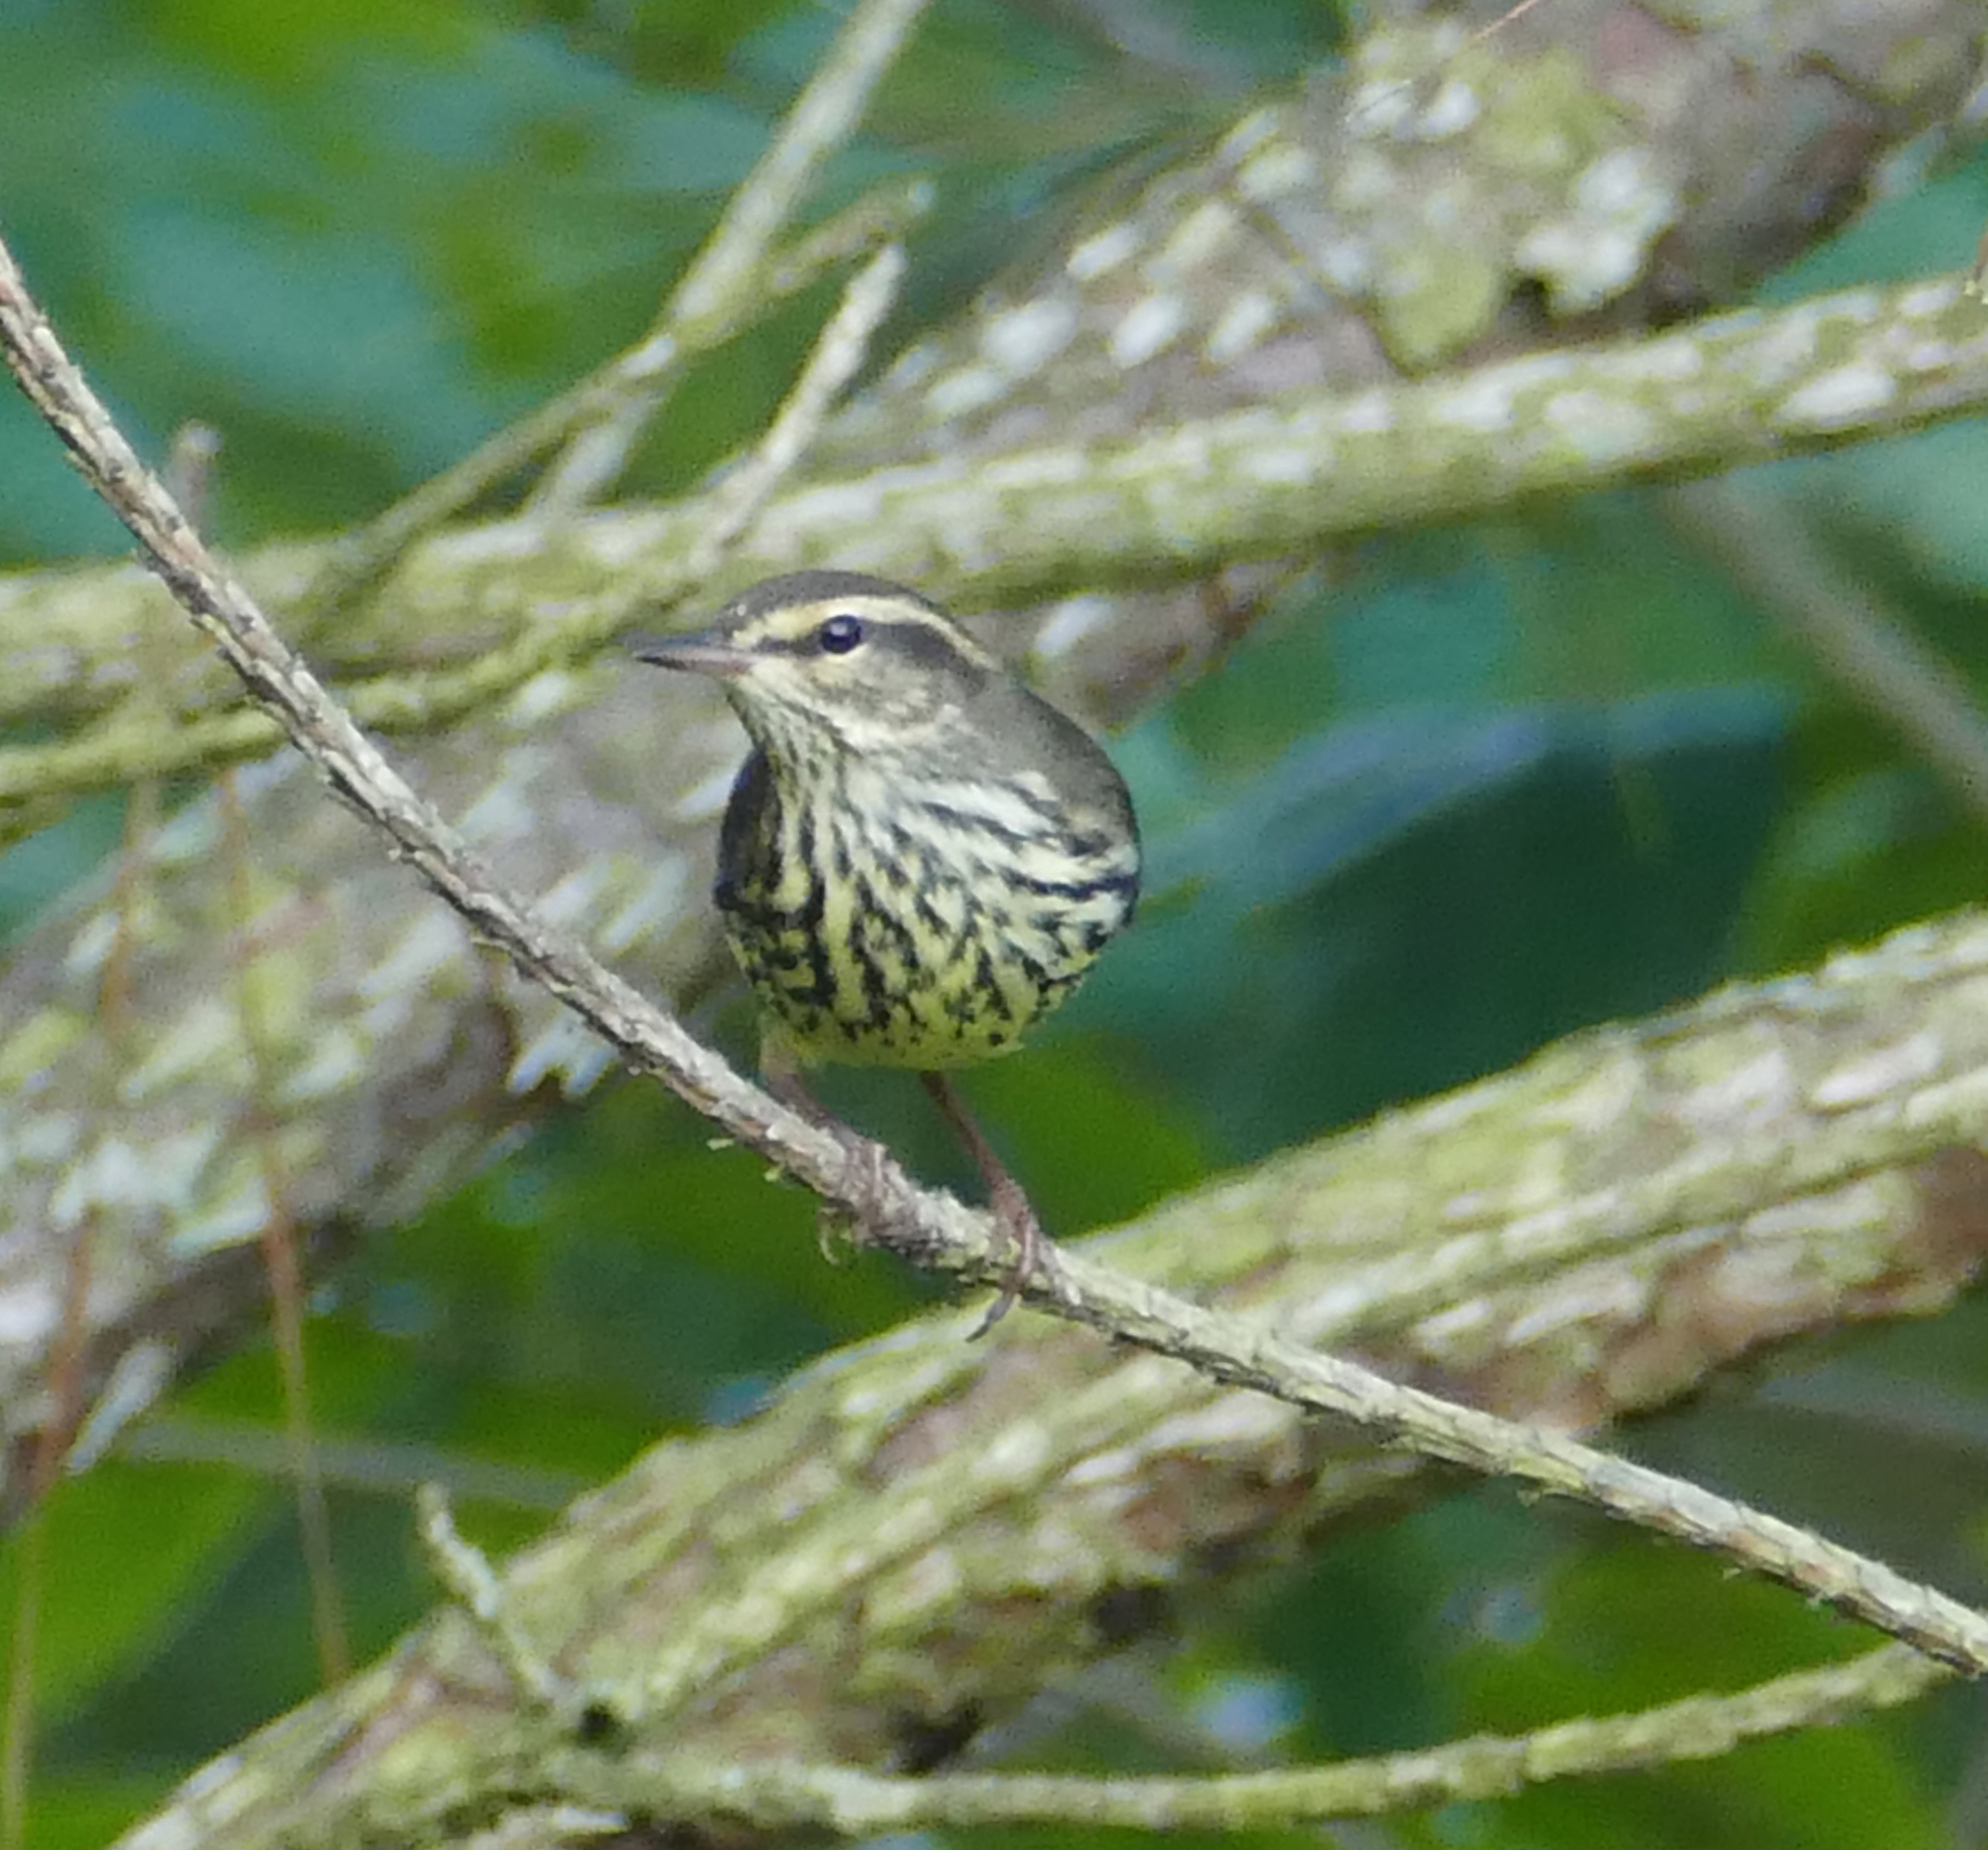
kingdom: Animalia
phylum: Chordata
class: Aves
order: Passeriformes
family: Parulidae
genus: Parkesia
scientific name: Parkesia noveboracensis
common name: Northern waterthrush
